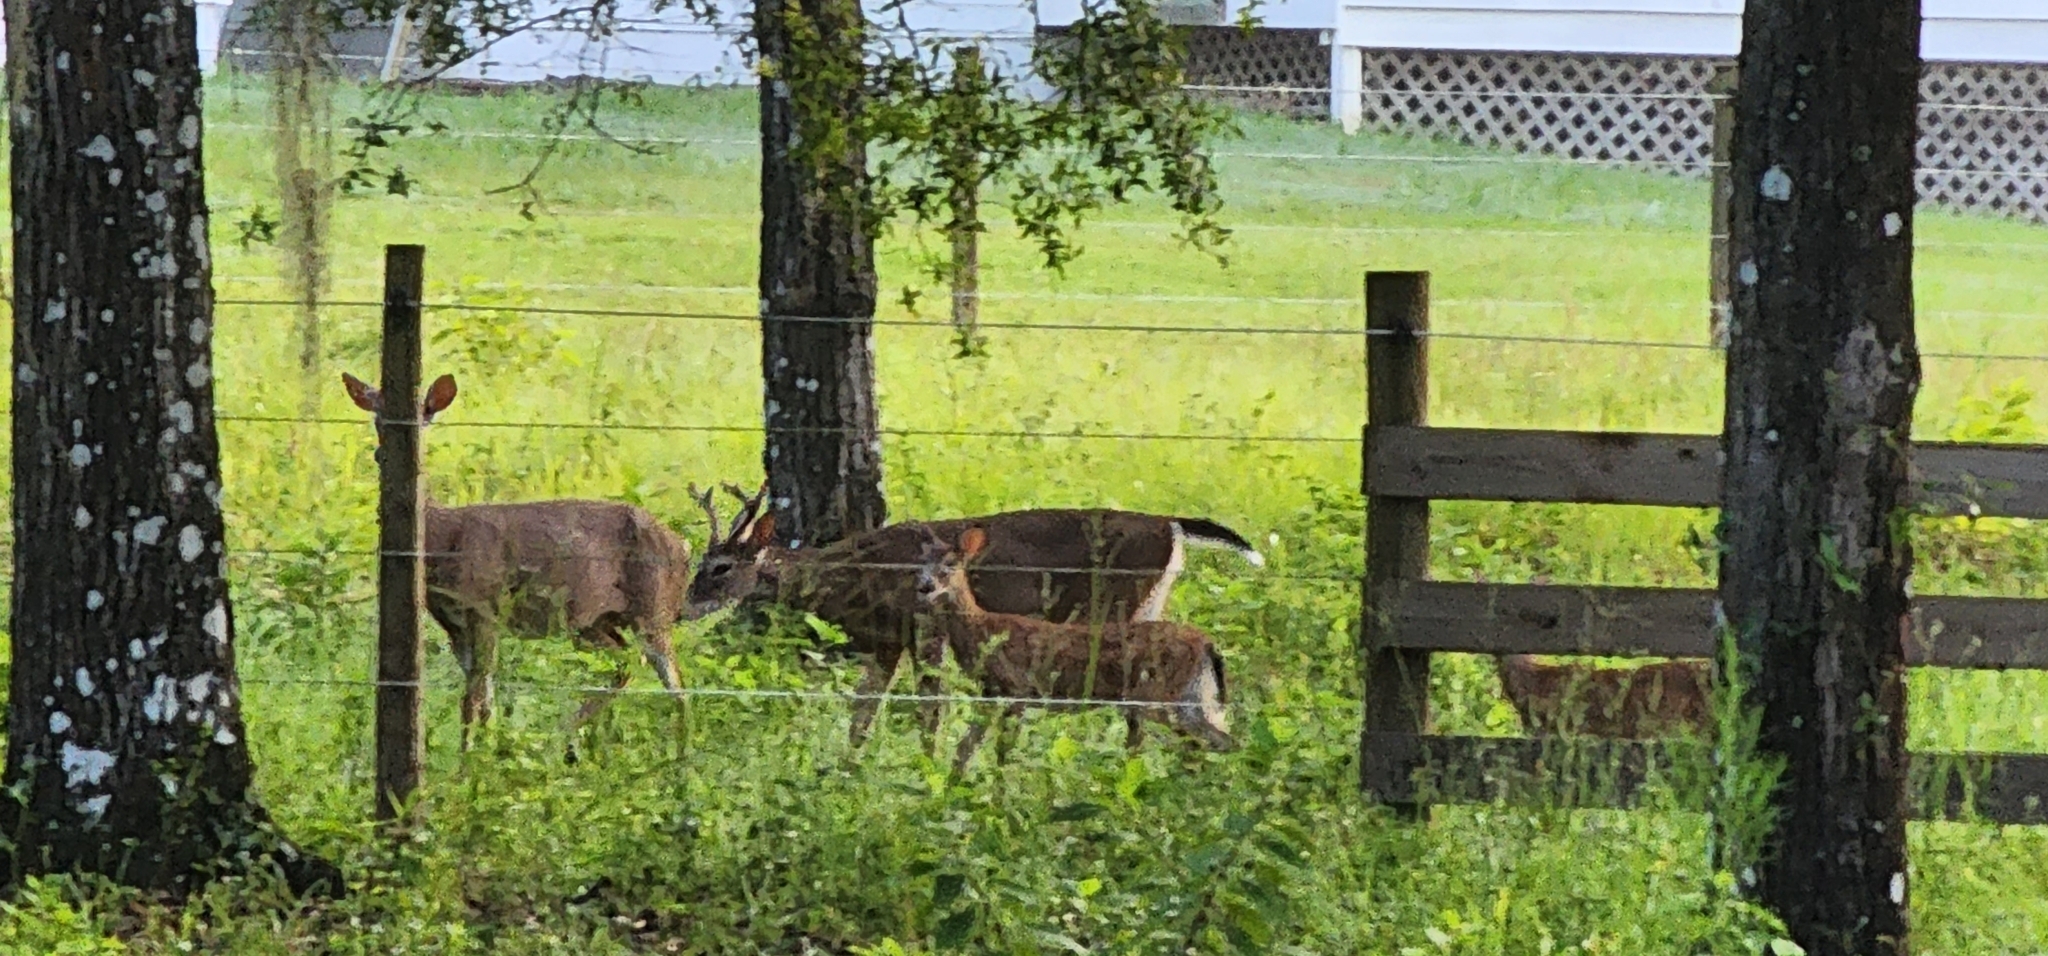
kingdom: Animalia
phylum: Chordata
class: Mammalia
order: Artiodactyla
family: Cervidae
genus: Odocoileus
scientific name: Odocoileus virginianus
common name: White-tailed deer
